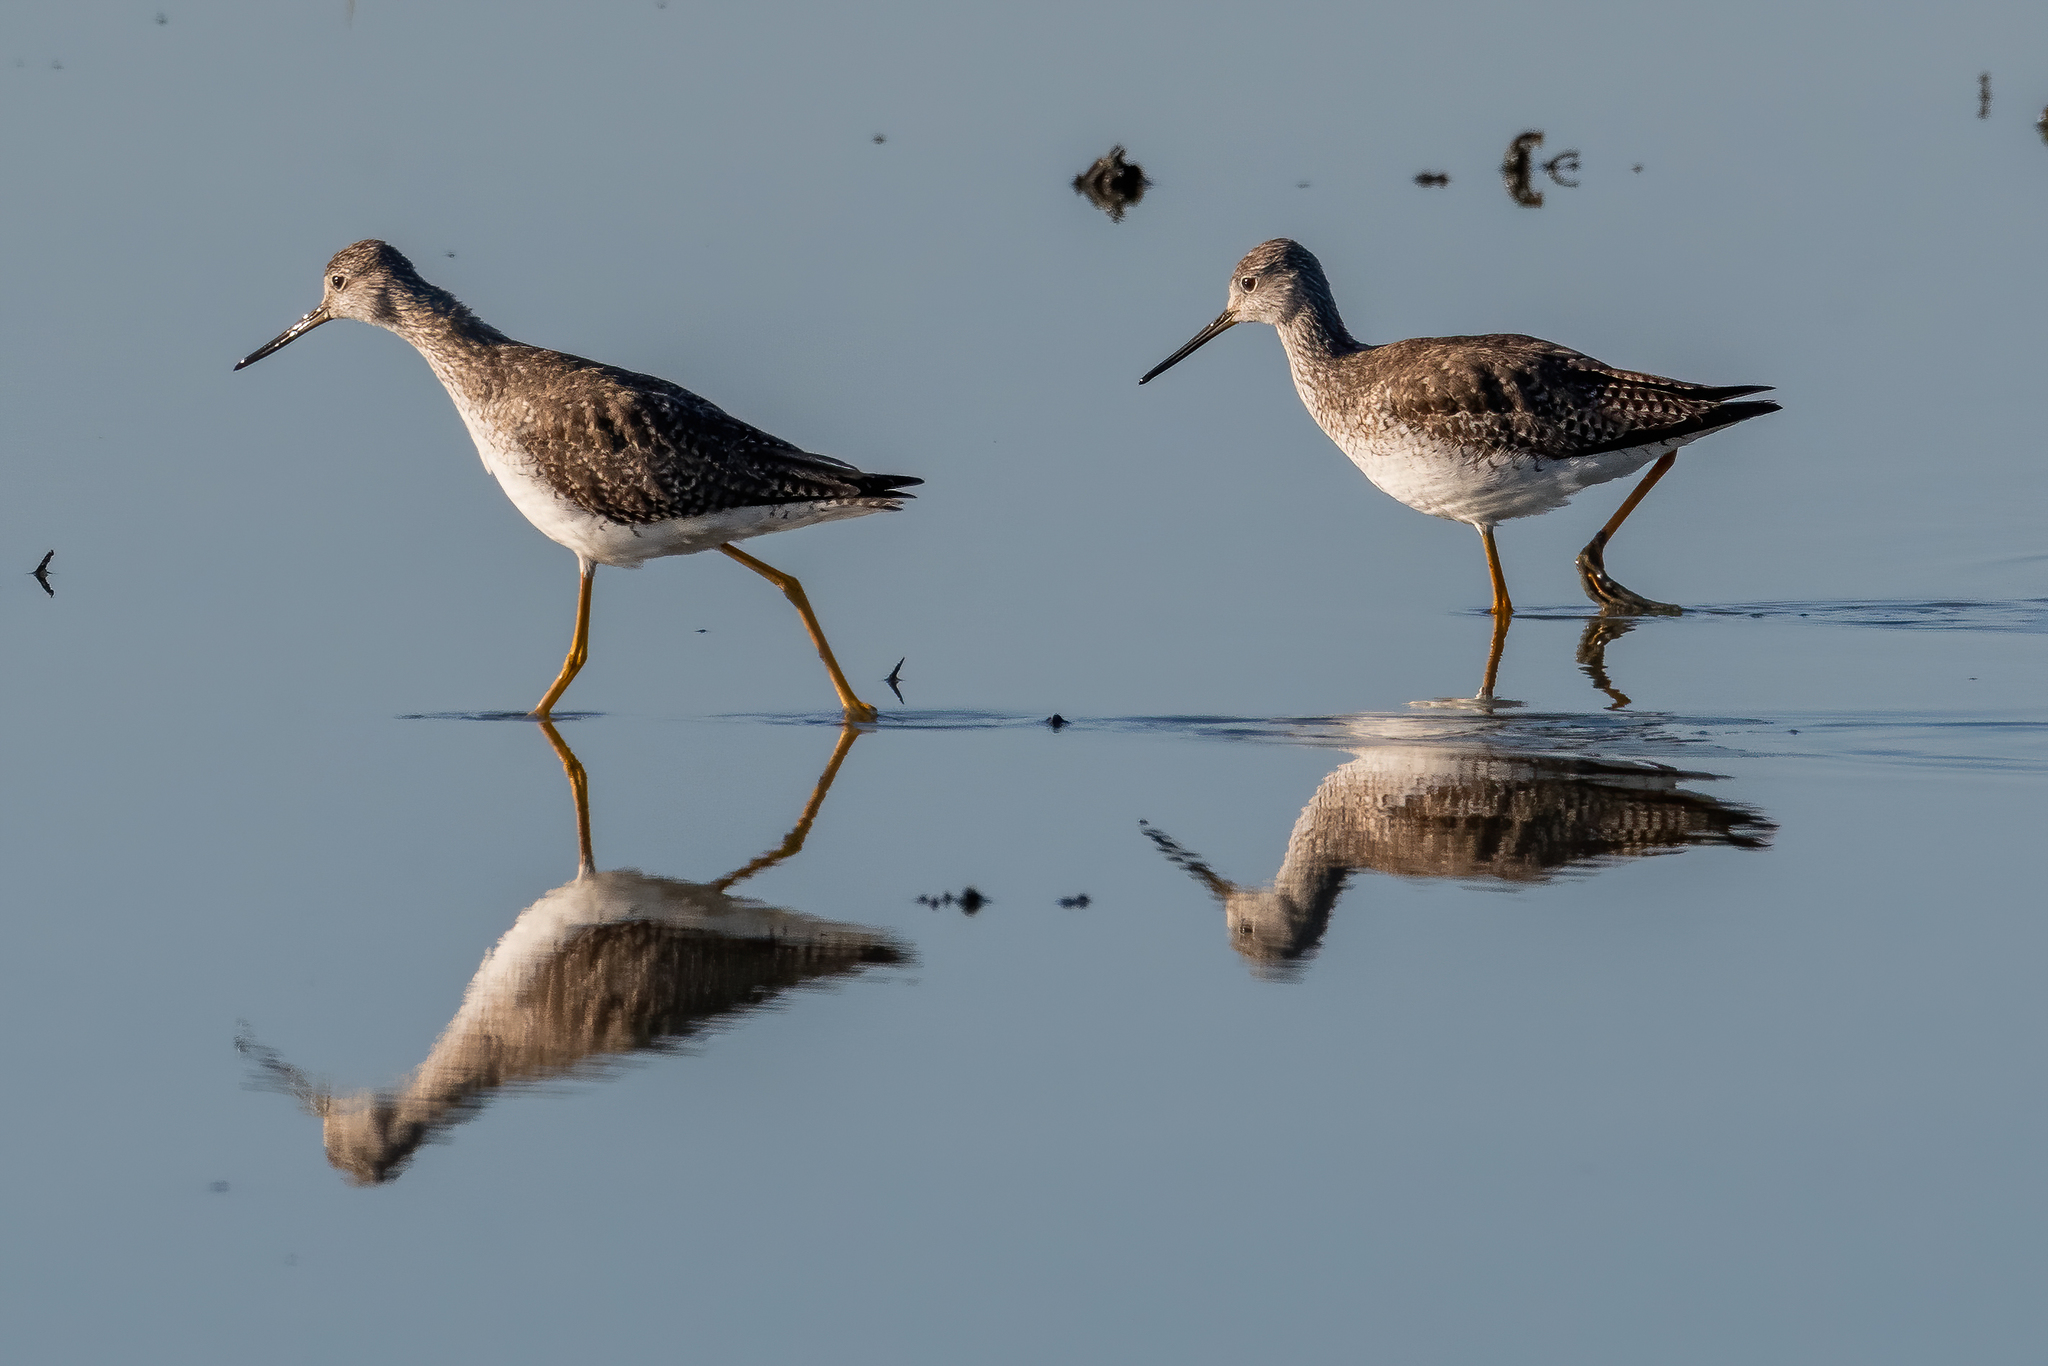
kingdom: Animalia
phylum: Chordata
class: Aves
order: Charadriiformes
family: Scolopacidae
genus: Tringa
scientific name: Tringa melanoleuca
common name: Greater yellowlegs
